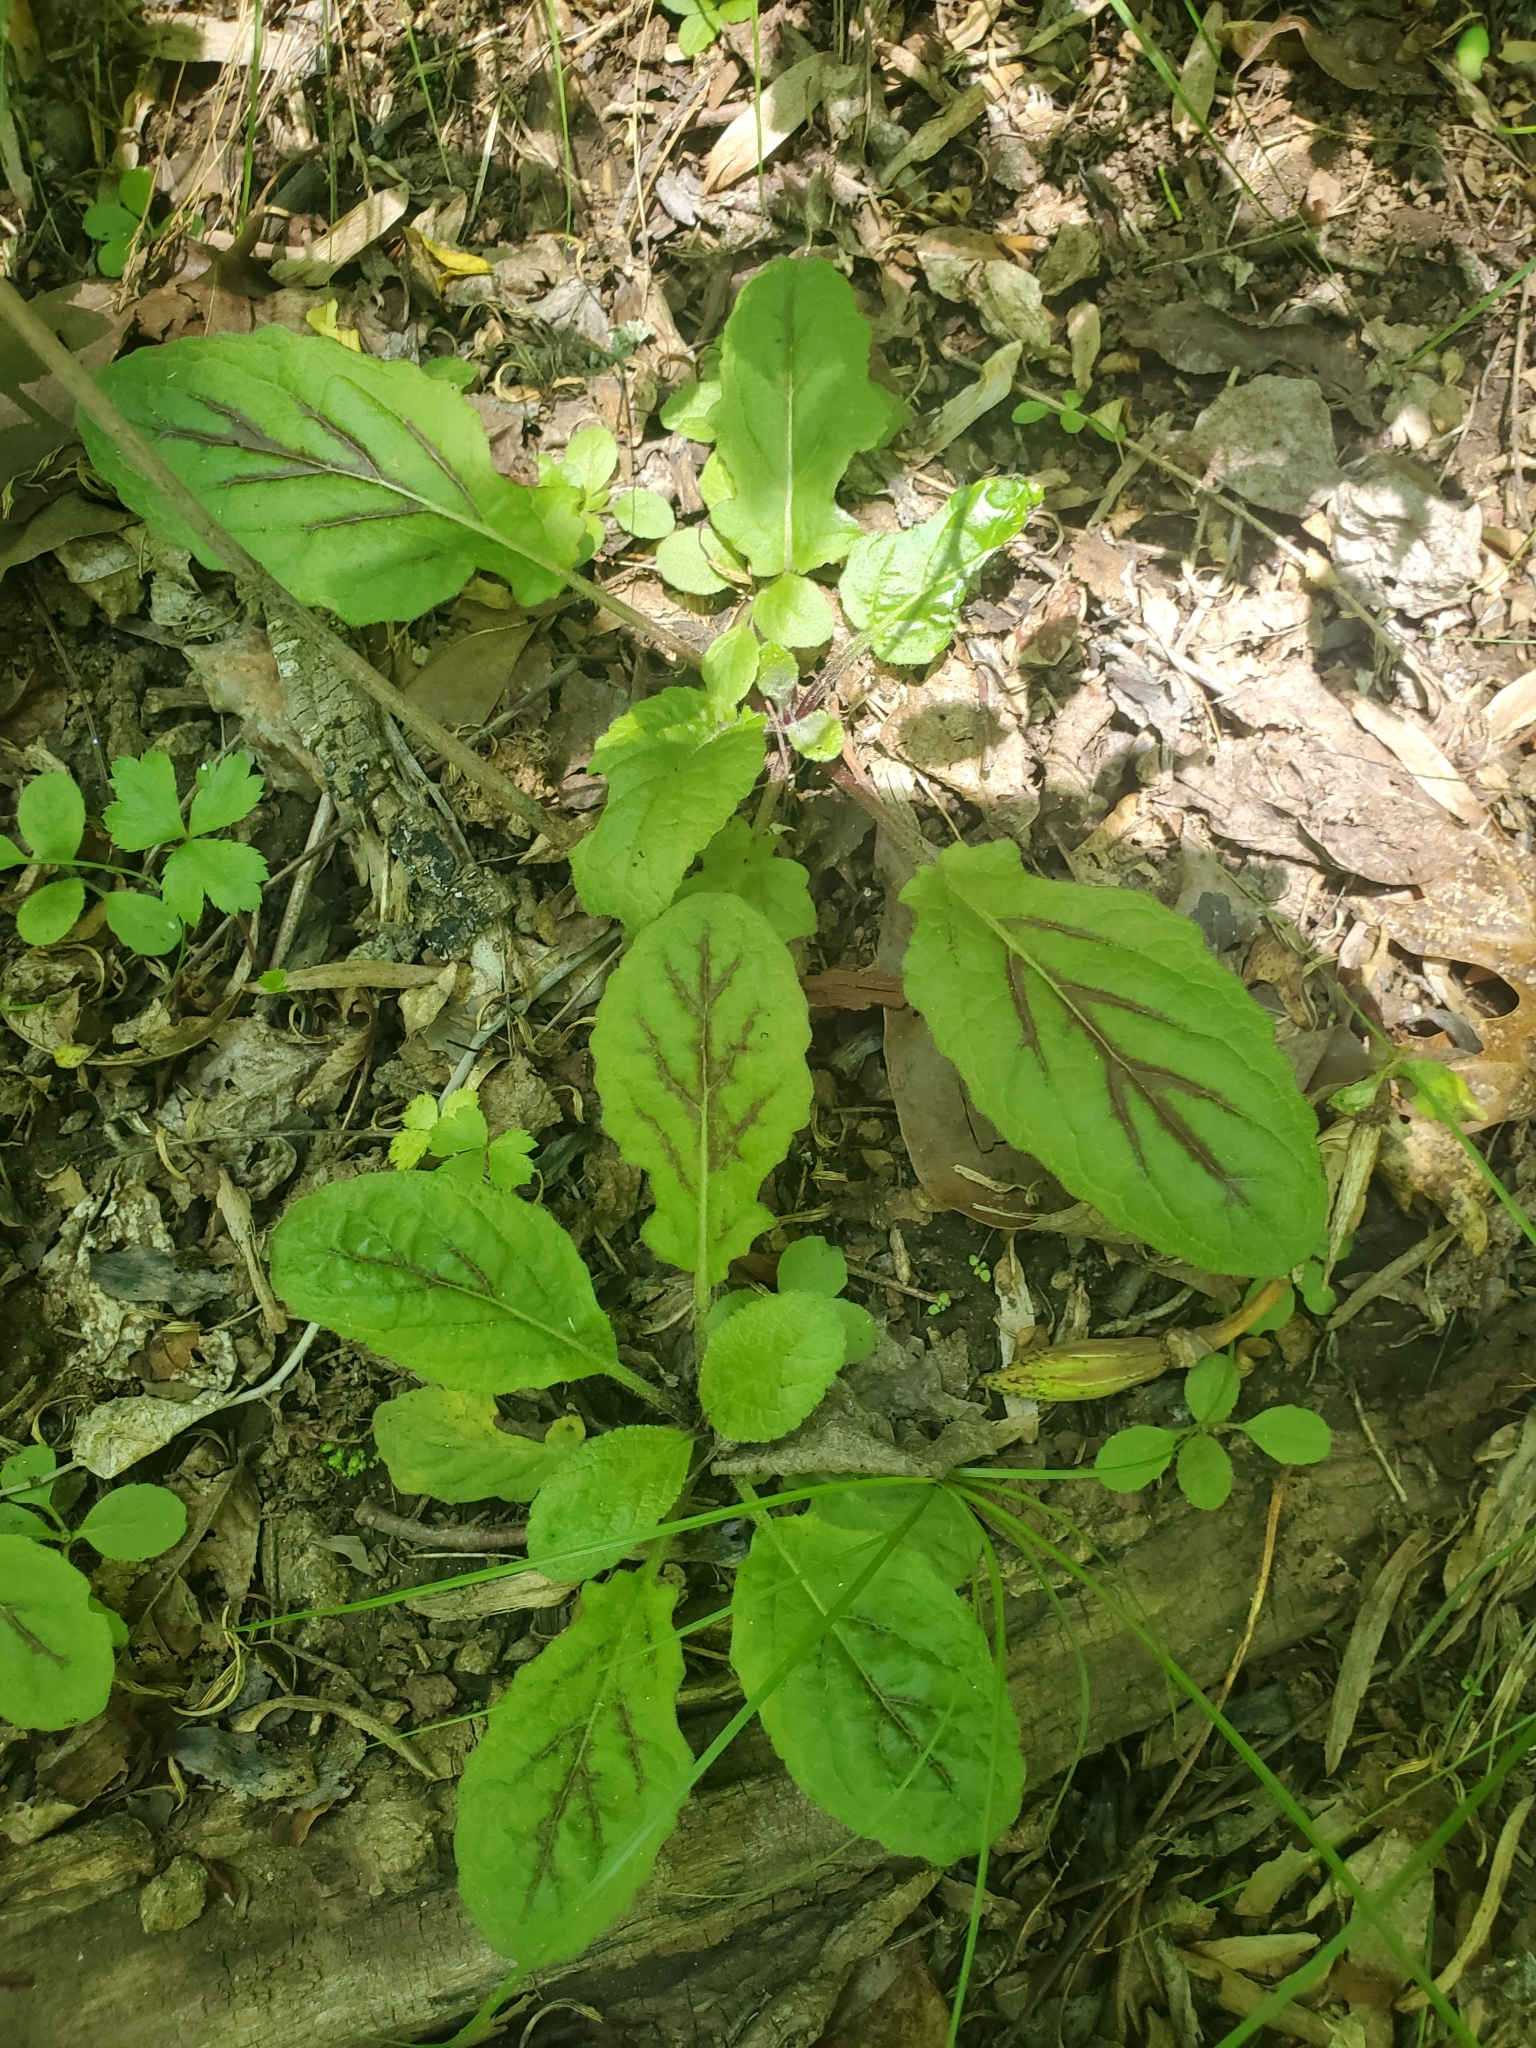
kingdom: Plantae
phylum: Tracheophyta
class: Magnoliopsida
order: Lamiales
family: Lamiaceae
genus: Salvia
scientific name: Salvia lyrata
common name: Cancerweed
